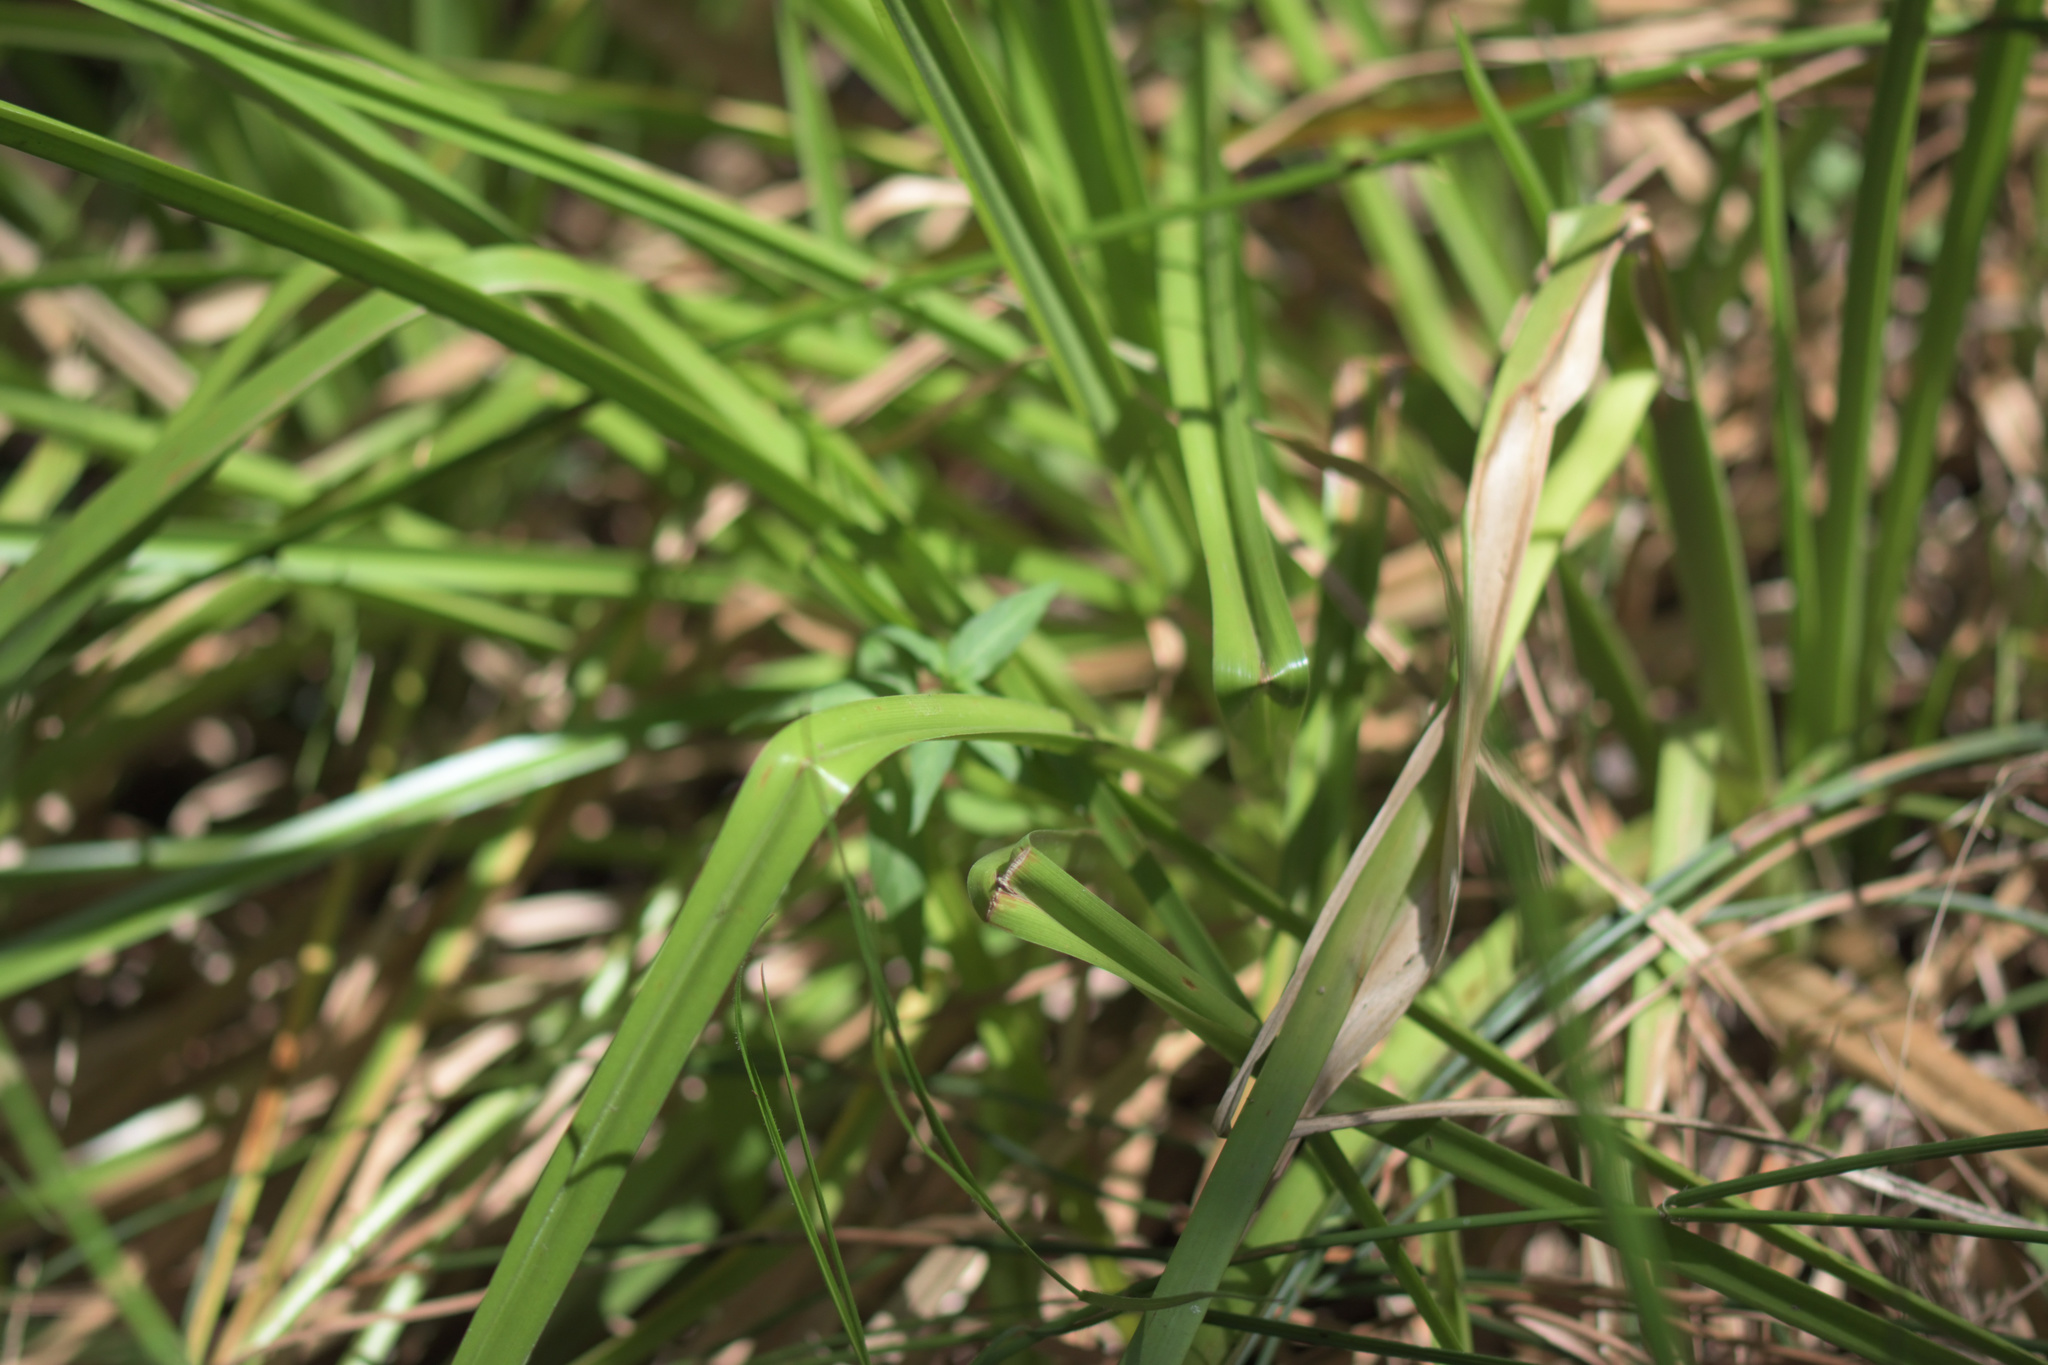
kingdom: Plantae
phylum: Tracheophyta
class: Liliopsida
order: Poales
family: Cyperaceae
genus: Carpha
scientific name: Carpha glomerata
